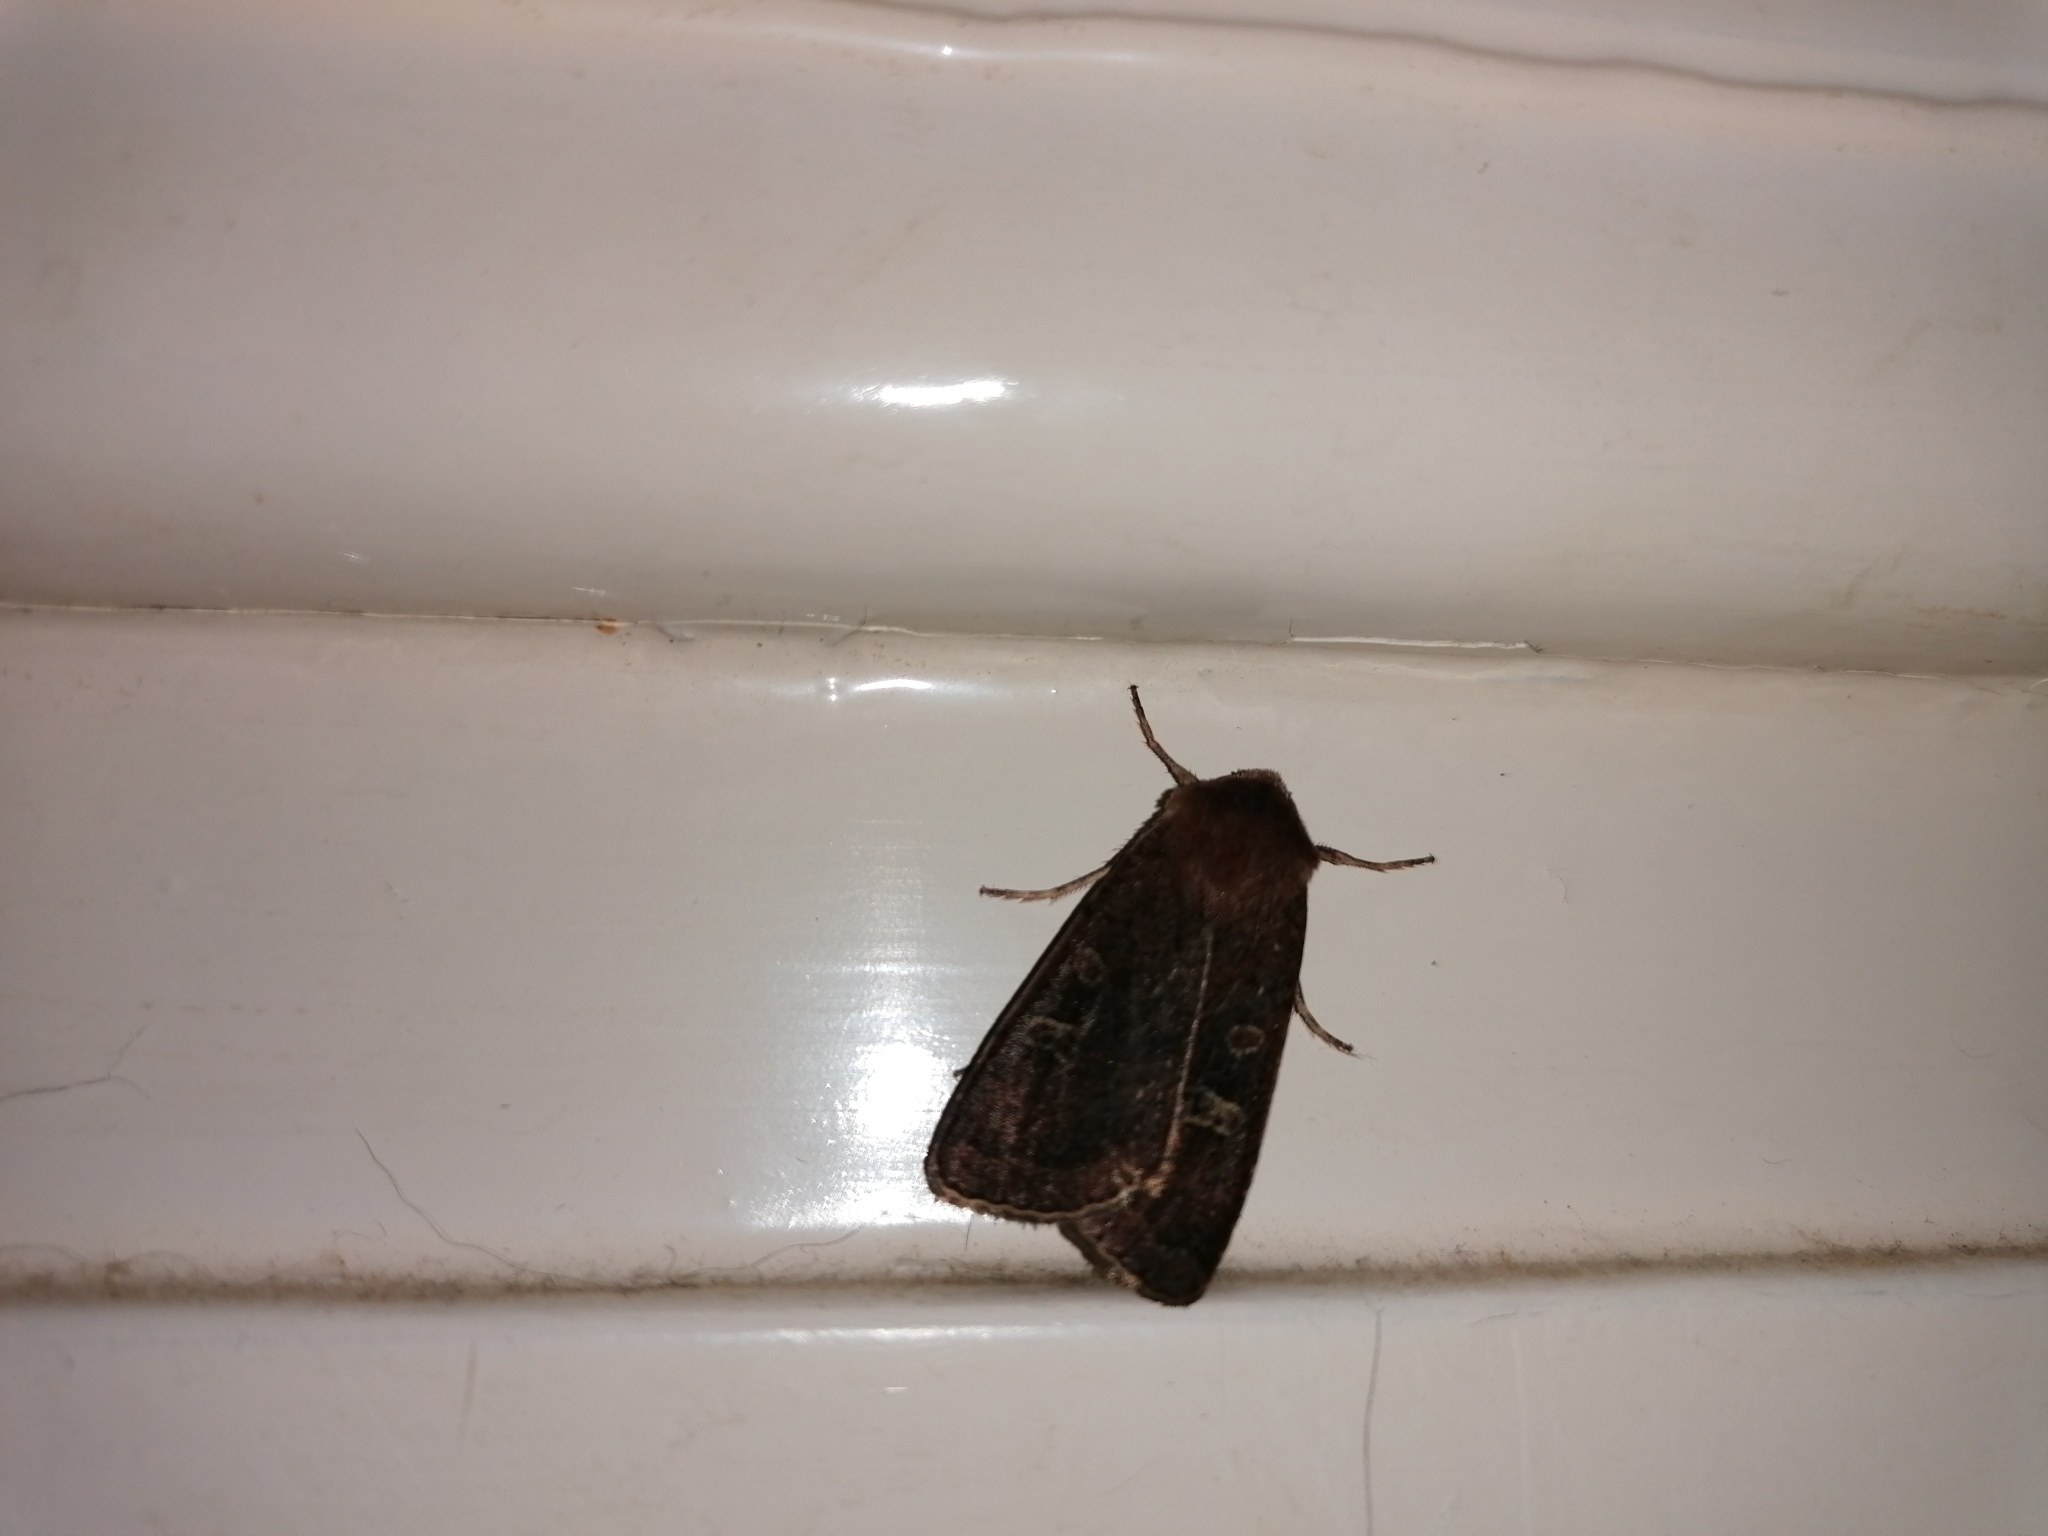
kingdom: Animalia
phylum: Arthropoda
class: Insecta
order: Lepidoptera
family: Noctuidae
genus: Xestia
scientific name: Xestia xanthographa
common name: Square-spot rustic
